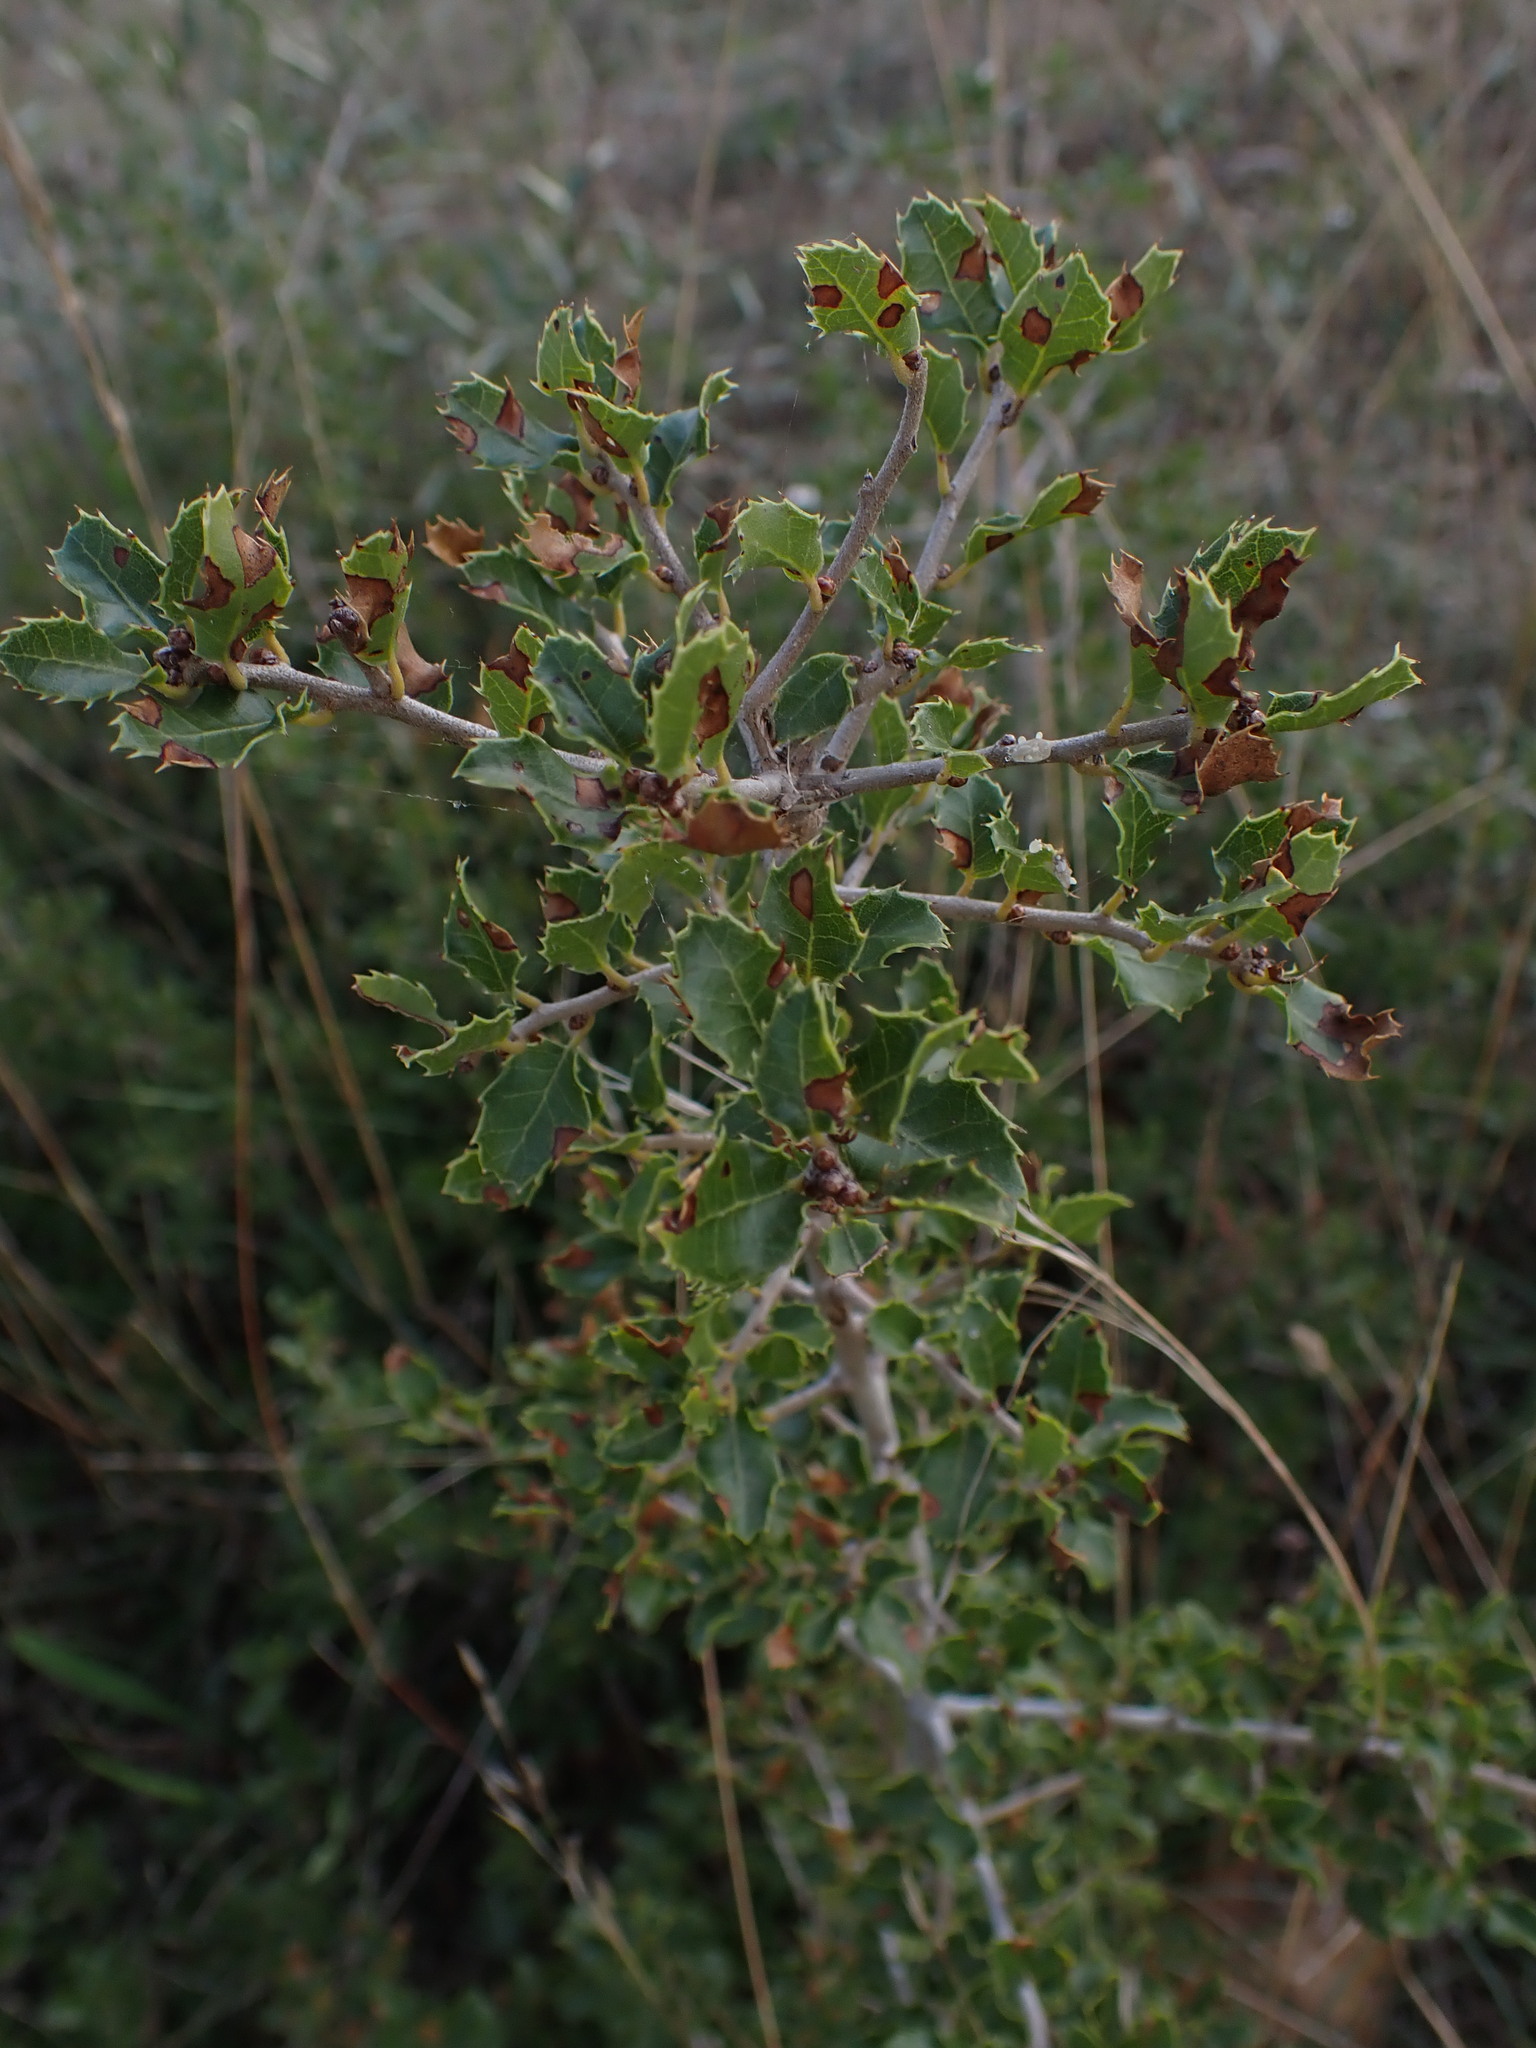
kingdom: Plantae
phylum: Tracheophyta
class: Magnoliopsida
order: Fagales
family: Fagaceae
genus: Quercus
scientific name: Quercus coccifera
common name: Kermes oak
